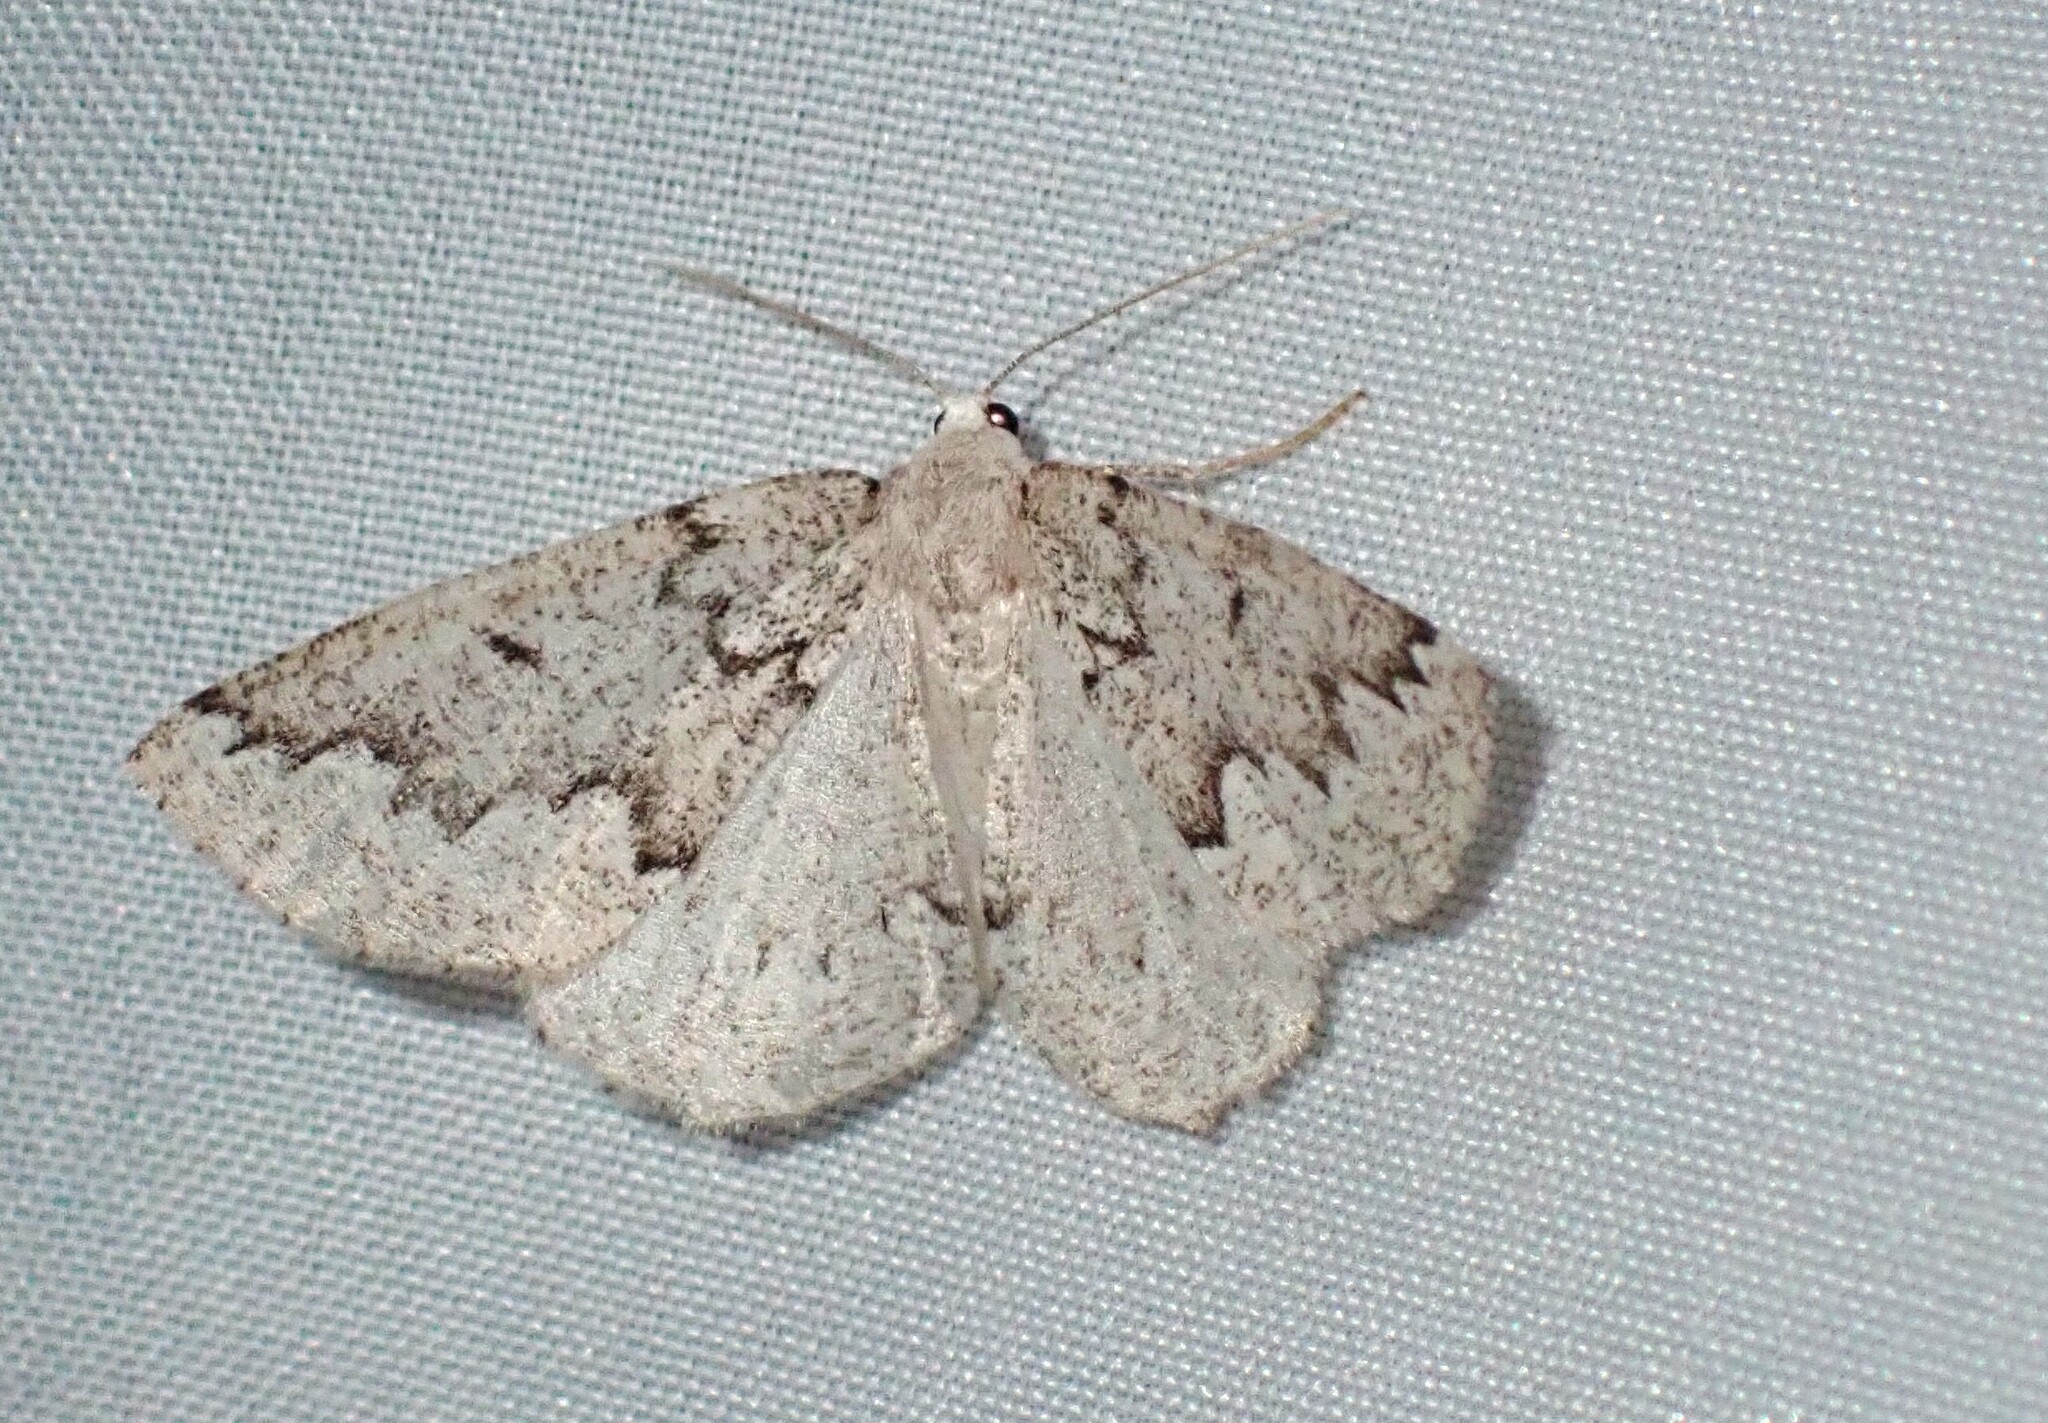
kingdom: Animalia
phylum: Arthropoda
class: Insecta
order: Lepidoptera
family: Geometridae
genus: Sabulodes
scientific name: Sabulodes
